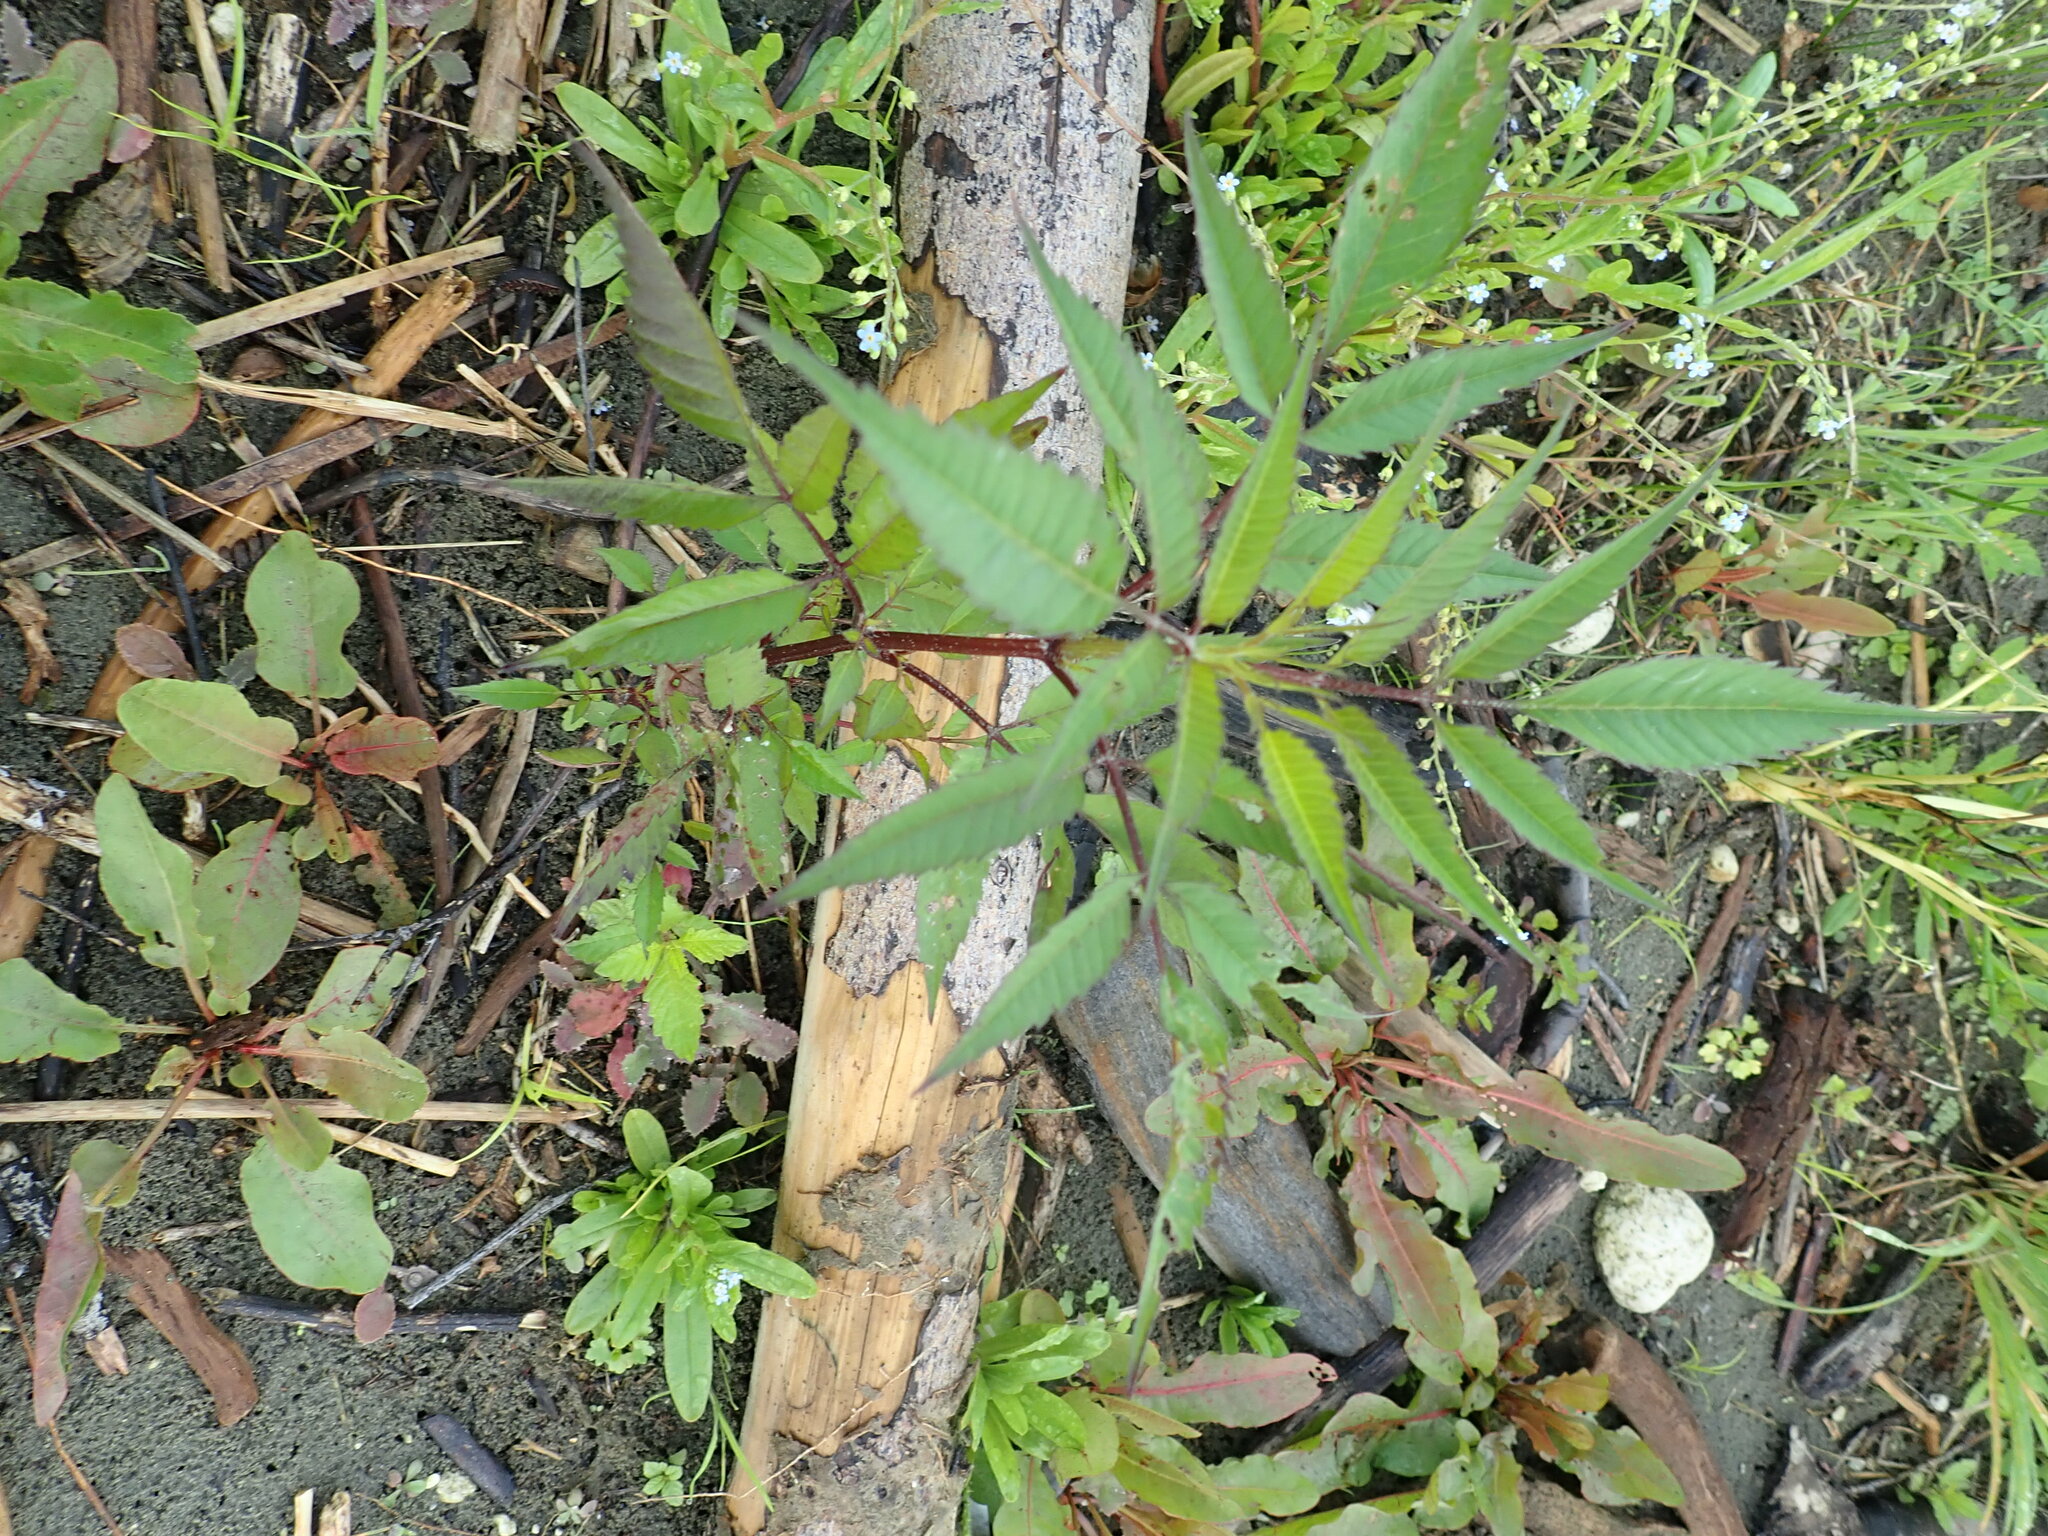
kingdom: Plantae
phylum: Tracheophyta
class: Magnoliopsida
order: Asterales
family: Asteraceae
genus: Bidens
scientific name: Bidens frondosa
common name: Beggarticks
